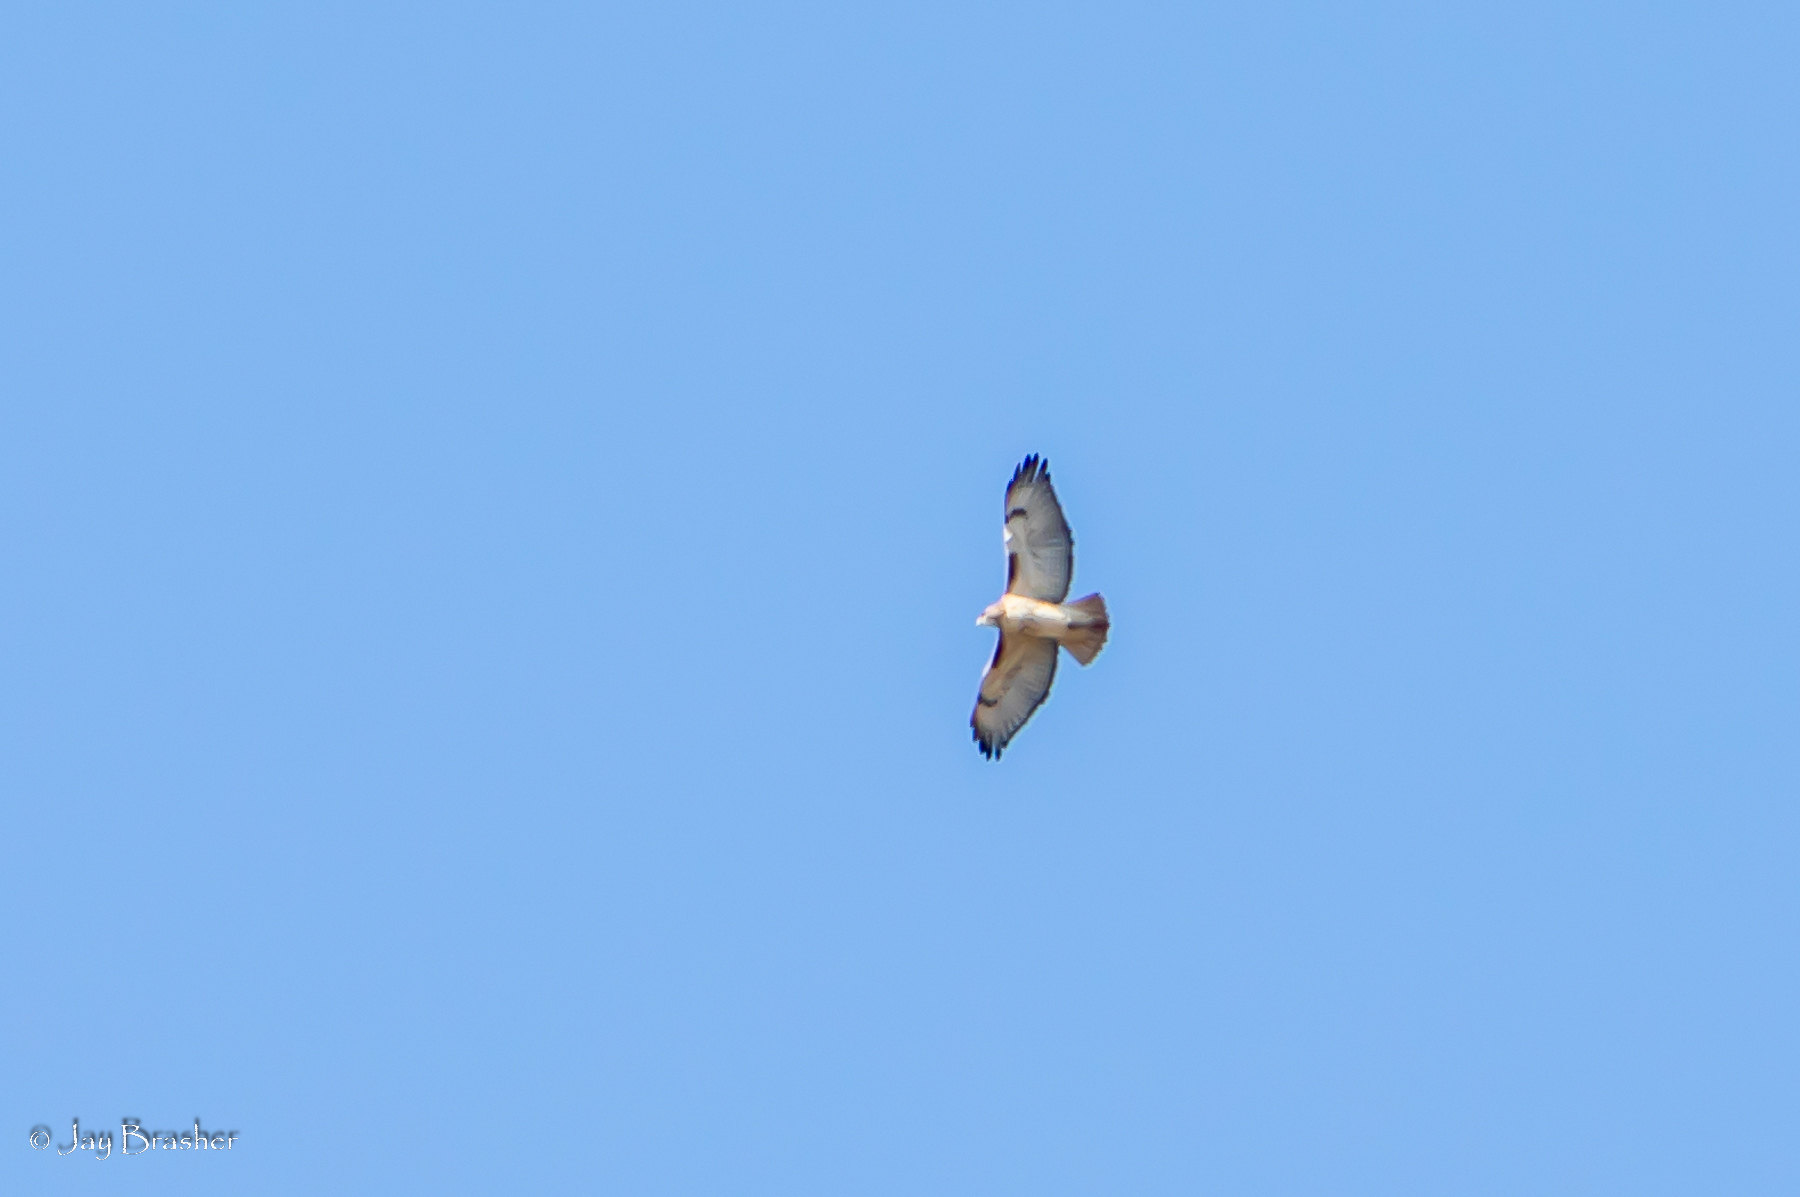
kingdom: Animalia
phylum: Chordata
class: Aves
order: Accipitriformes
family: Accipitridae
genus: Buteo
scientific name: Buteo jamaicensis
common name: Red-tailed hawk
